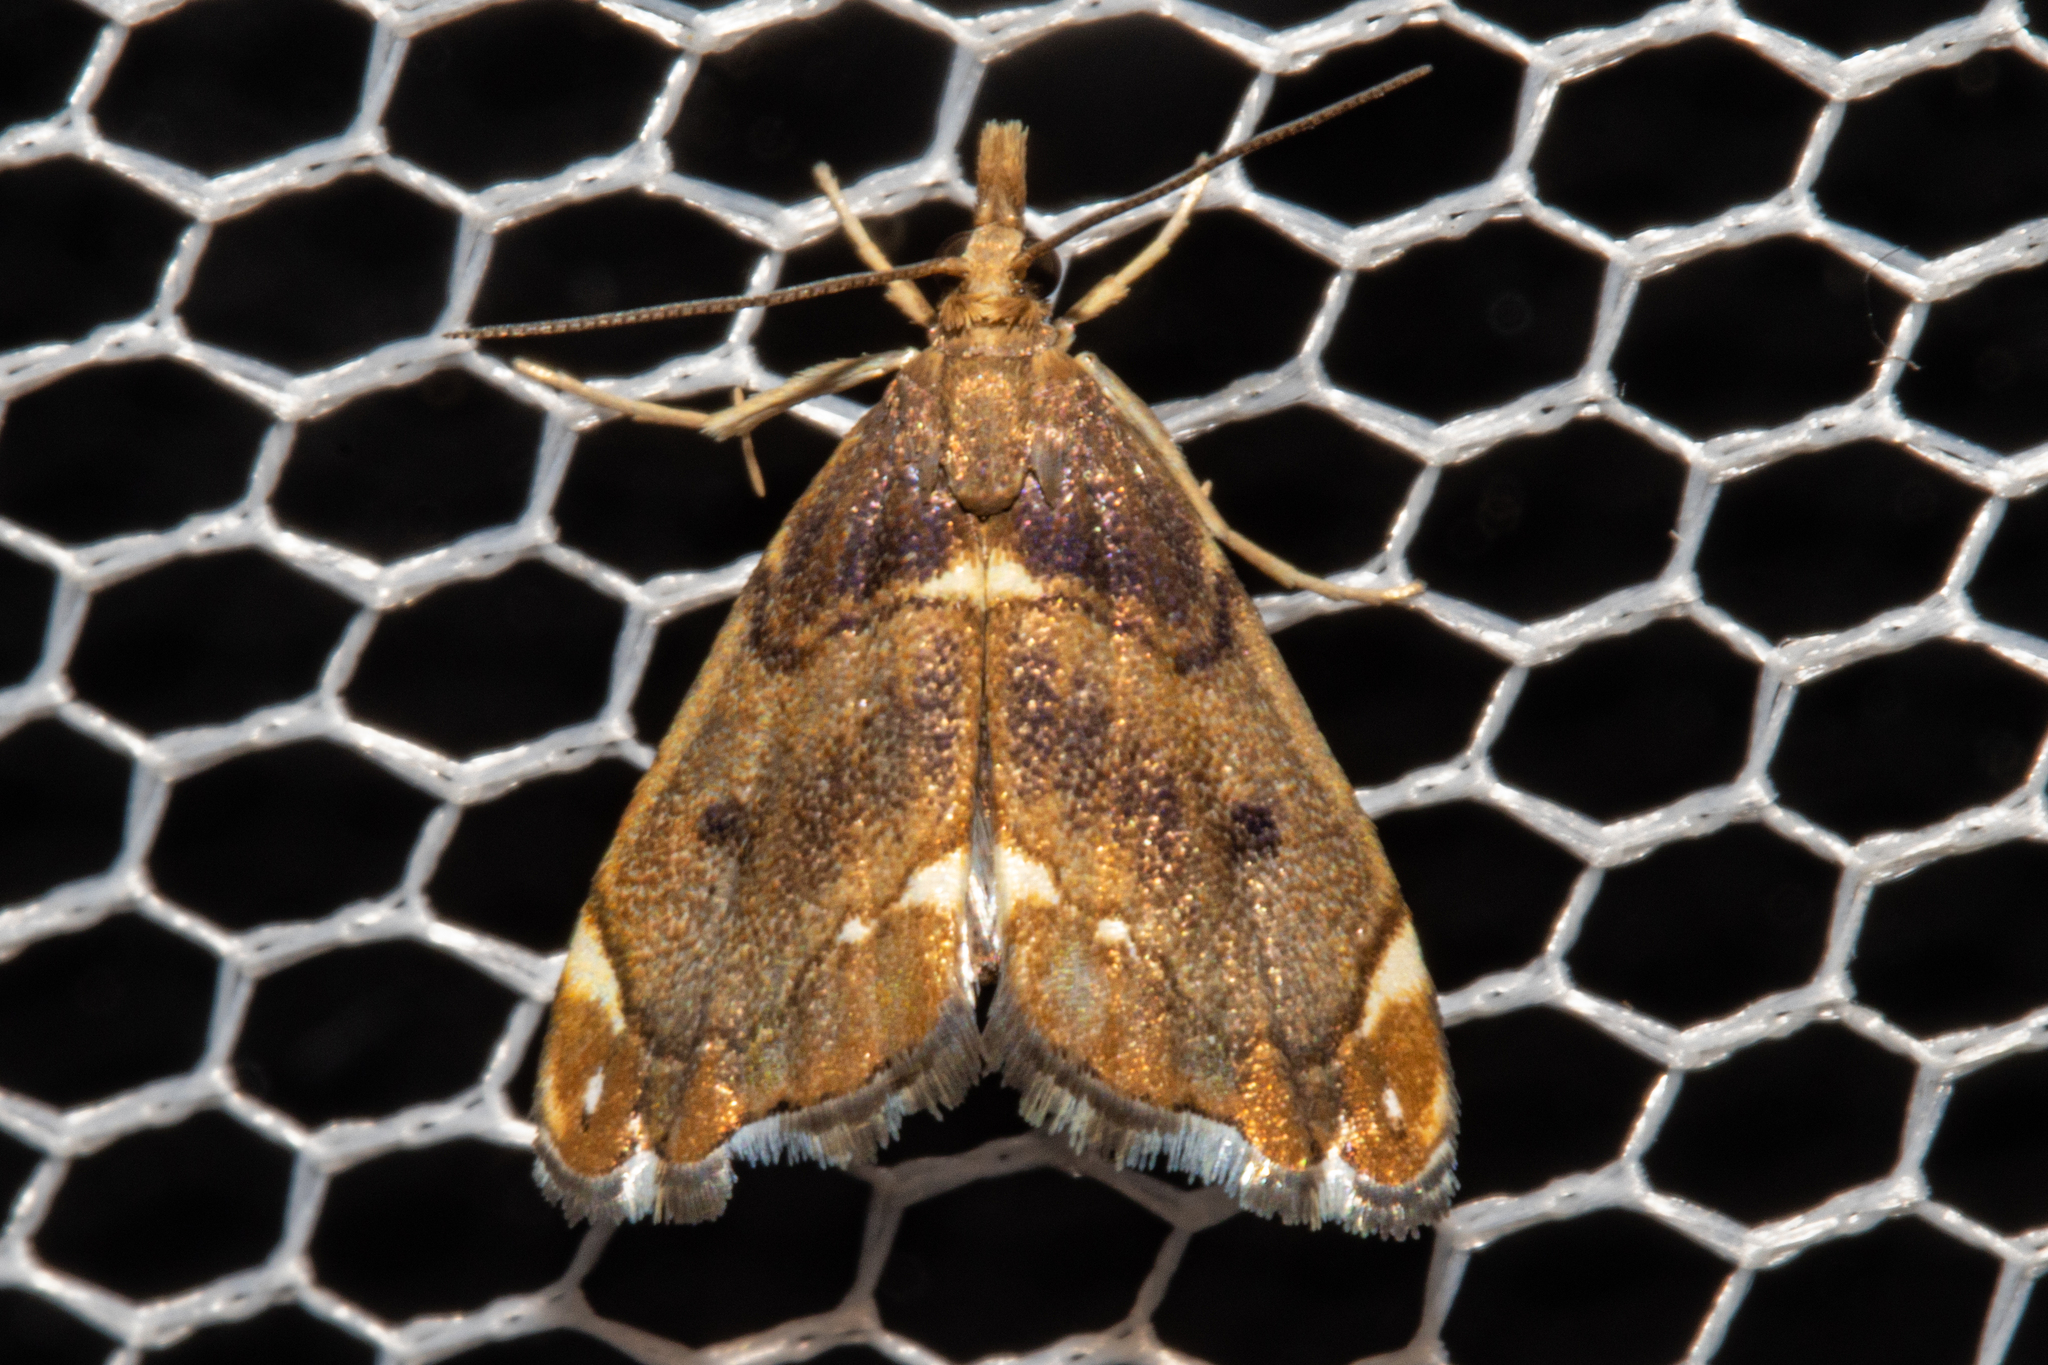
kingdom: Animalia
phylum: Arthropoda
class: Insecta
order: Lepidoptera
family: Crambidae
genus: Glaucocharis
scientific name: Glaucocharis pyrsophanes
